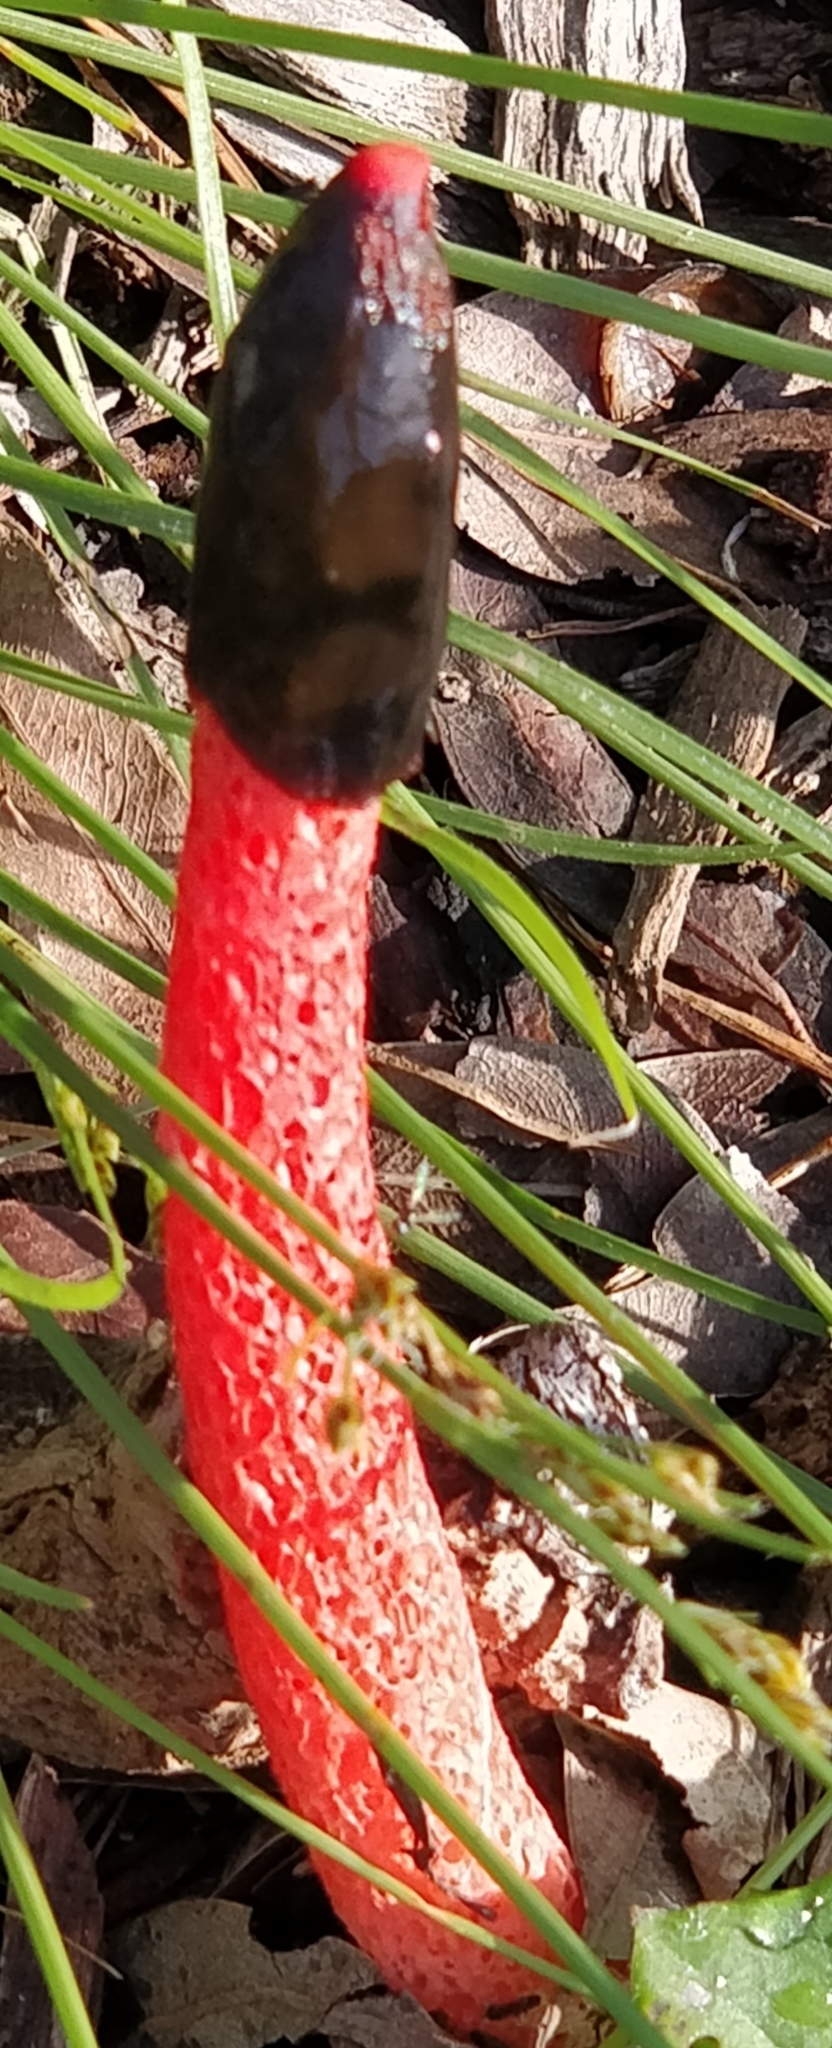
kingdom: Fungi
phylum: Basidiomycota
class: Agaricomycetes
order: Phallales
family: Phallaceae
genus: Phallus
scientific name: Phallus rubicundus
